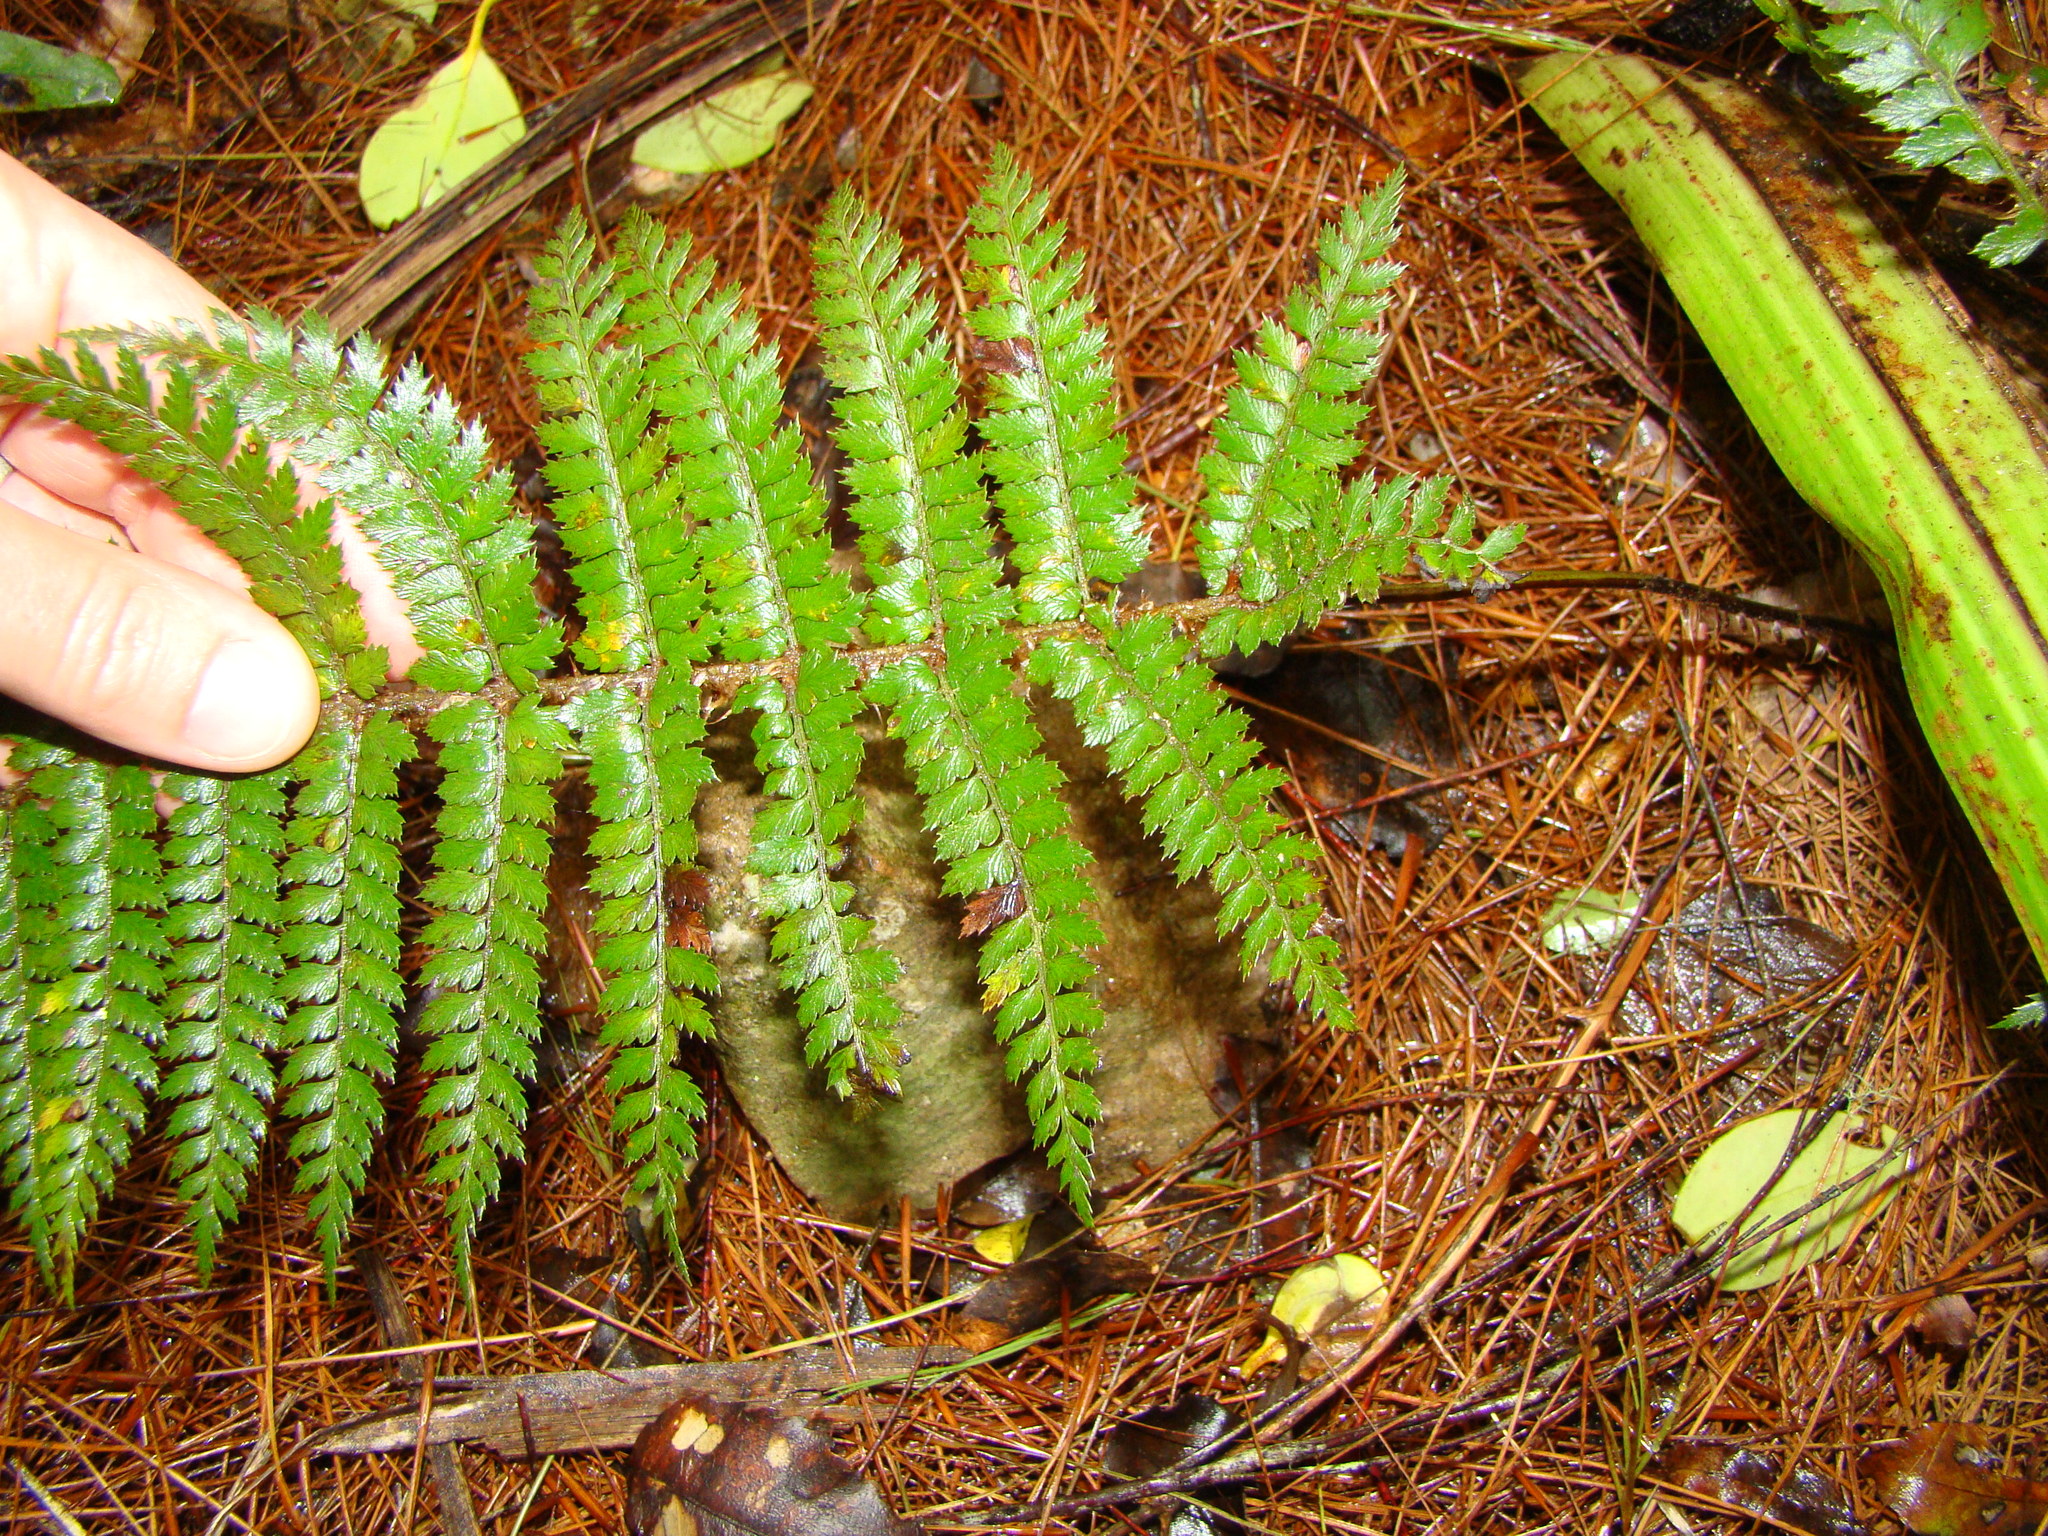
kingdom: Plantae
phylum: Tracheophyta
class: Polypodiopsida
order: Polypodiales
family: Dryopteridaceae
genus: Polystichum
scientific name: Polystichum vestitum
